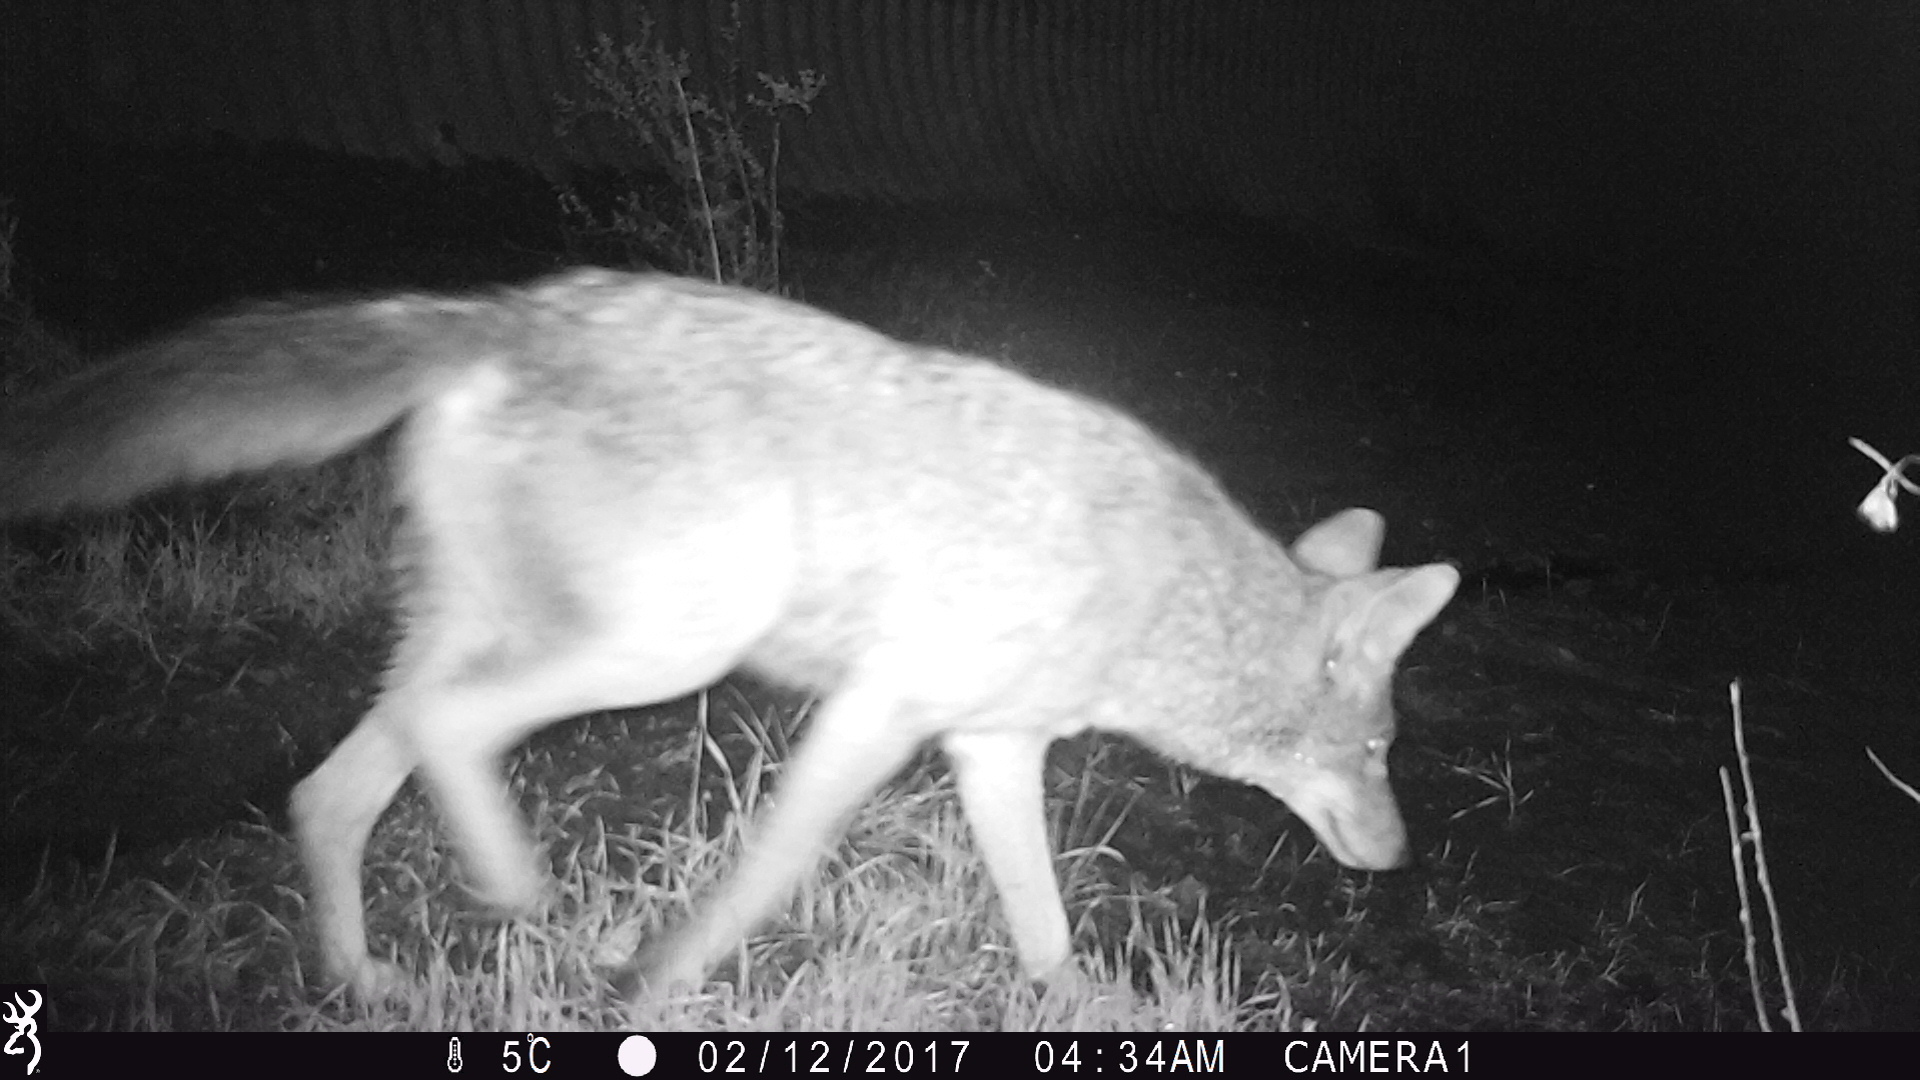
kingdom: Animalia
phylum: Chordata
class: Mammalia
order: Carnivora
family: Canidae
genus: Canis
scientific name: Canis latrans
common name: Coyote
